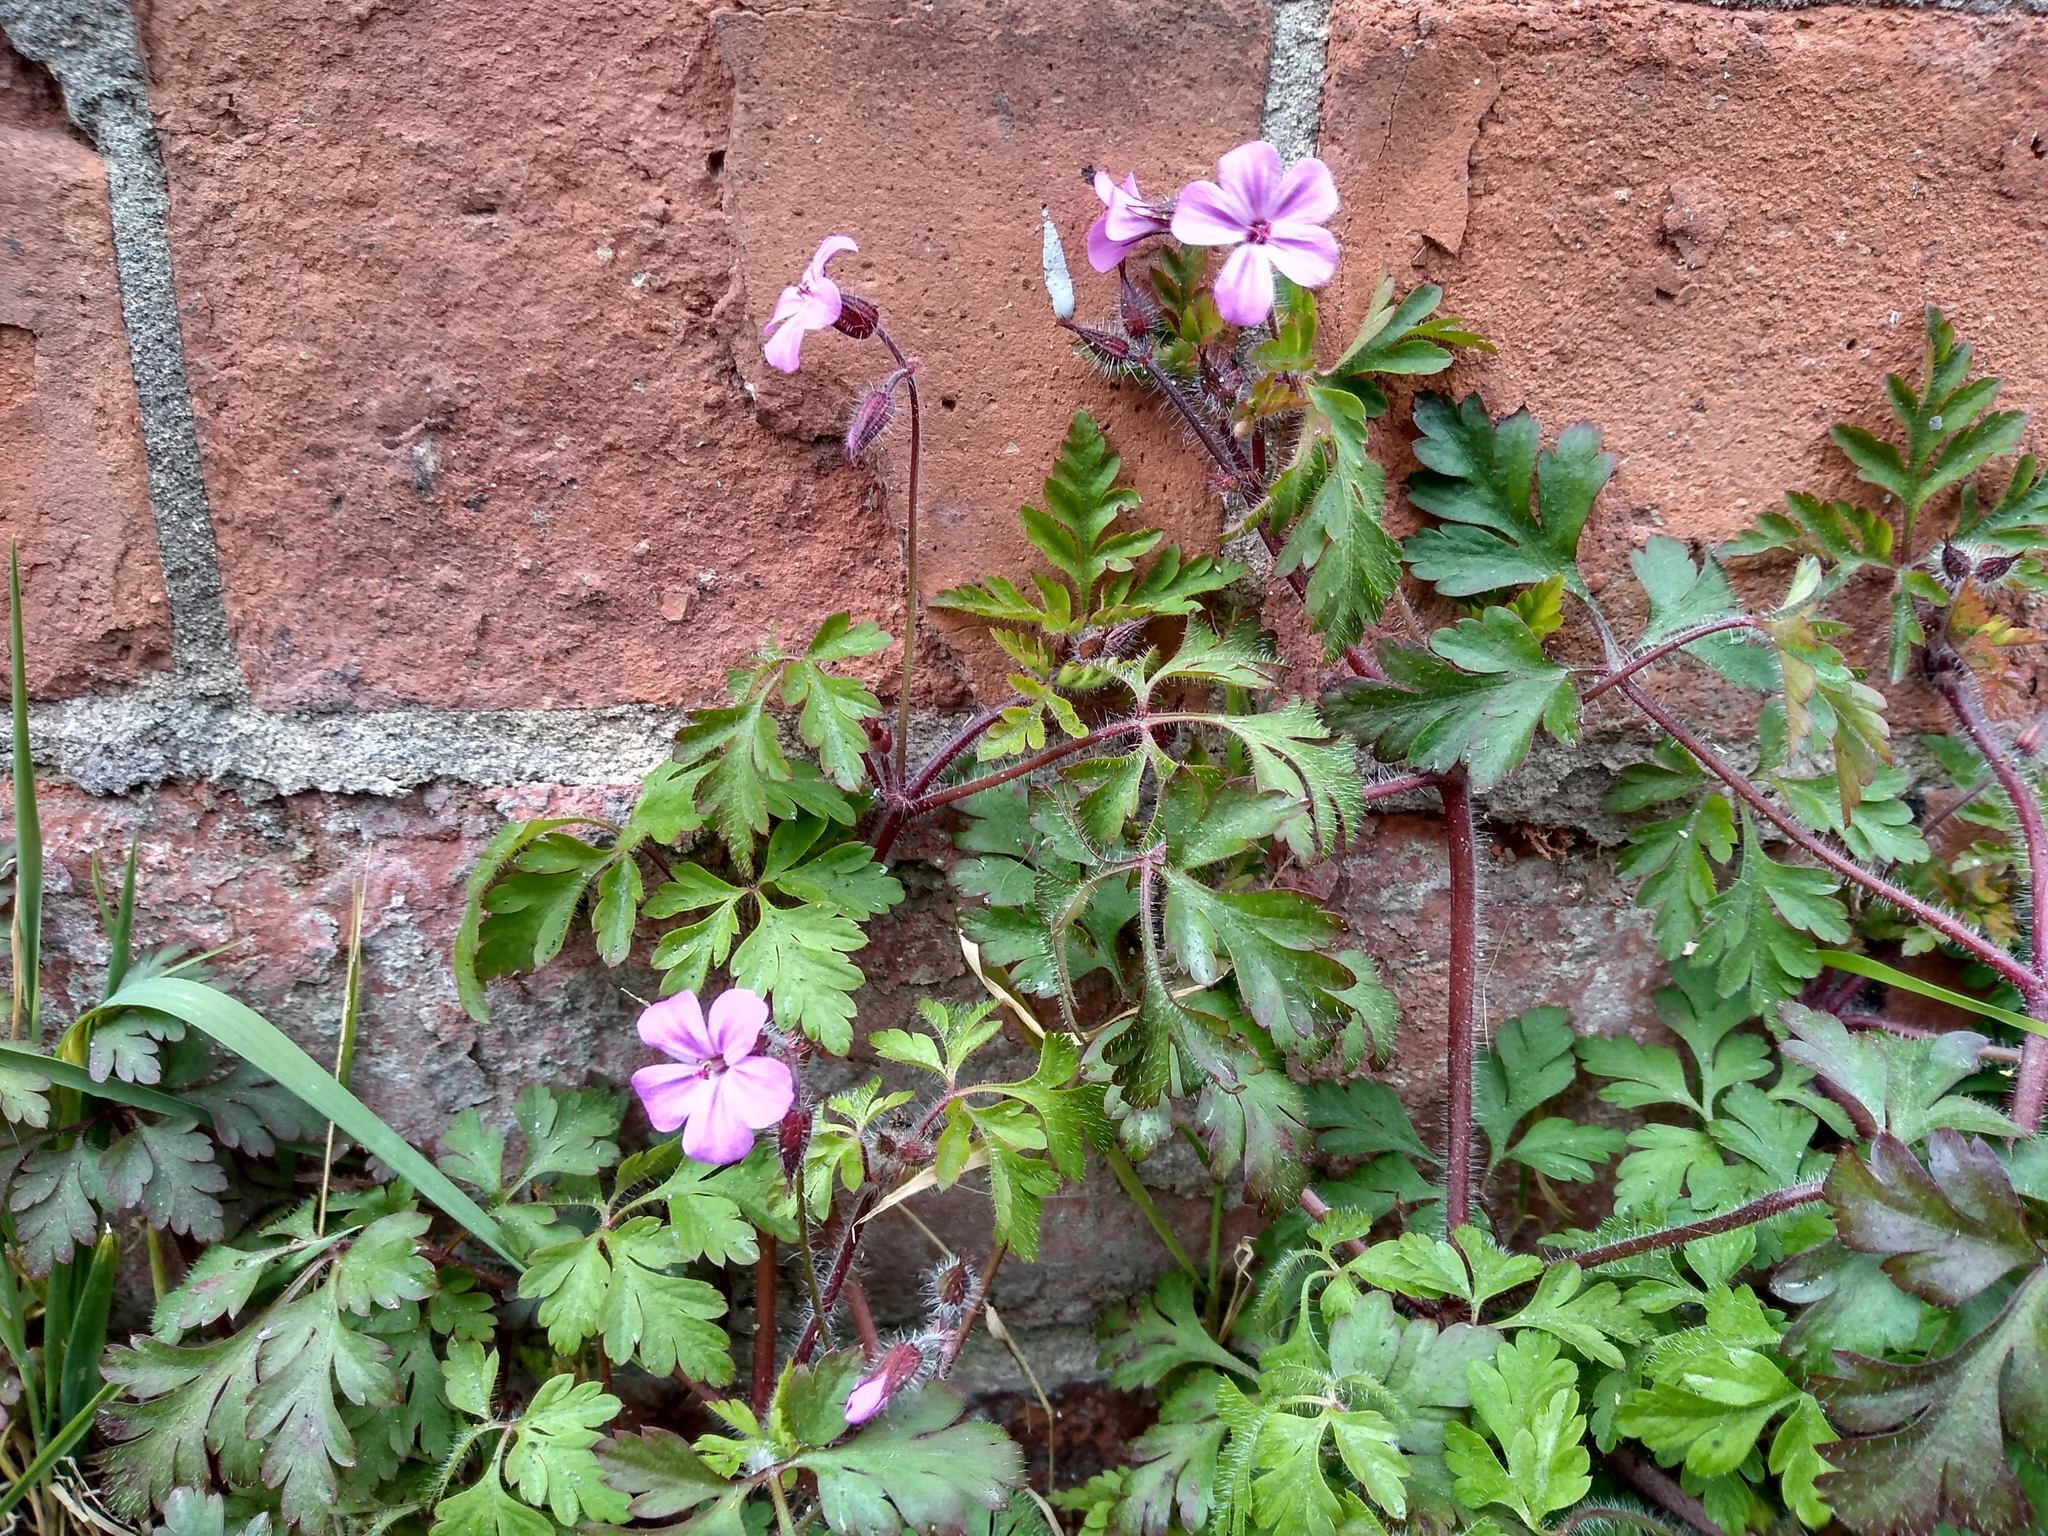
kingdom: Plantae
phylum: Tracheophyta
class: Magnoliopsida
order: Geraniales
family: Geraniaceae
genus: Geranium
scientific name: Geranium robertianum
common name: Herb-robert
